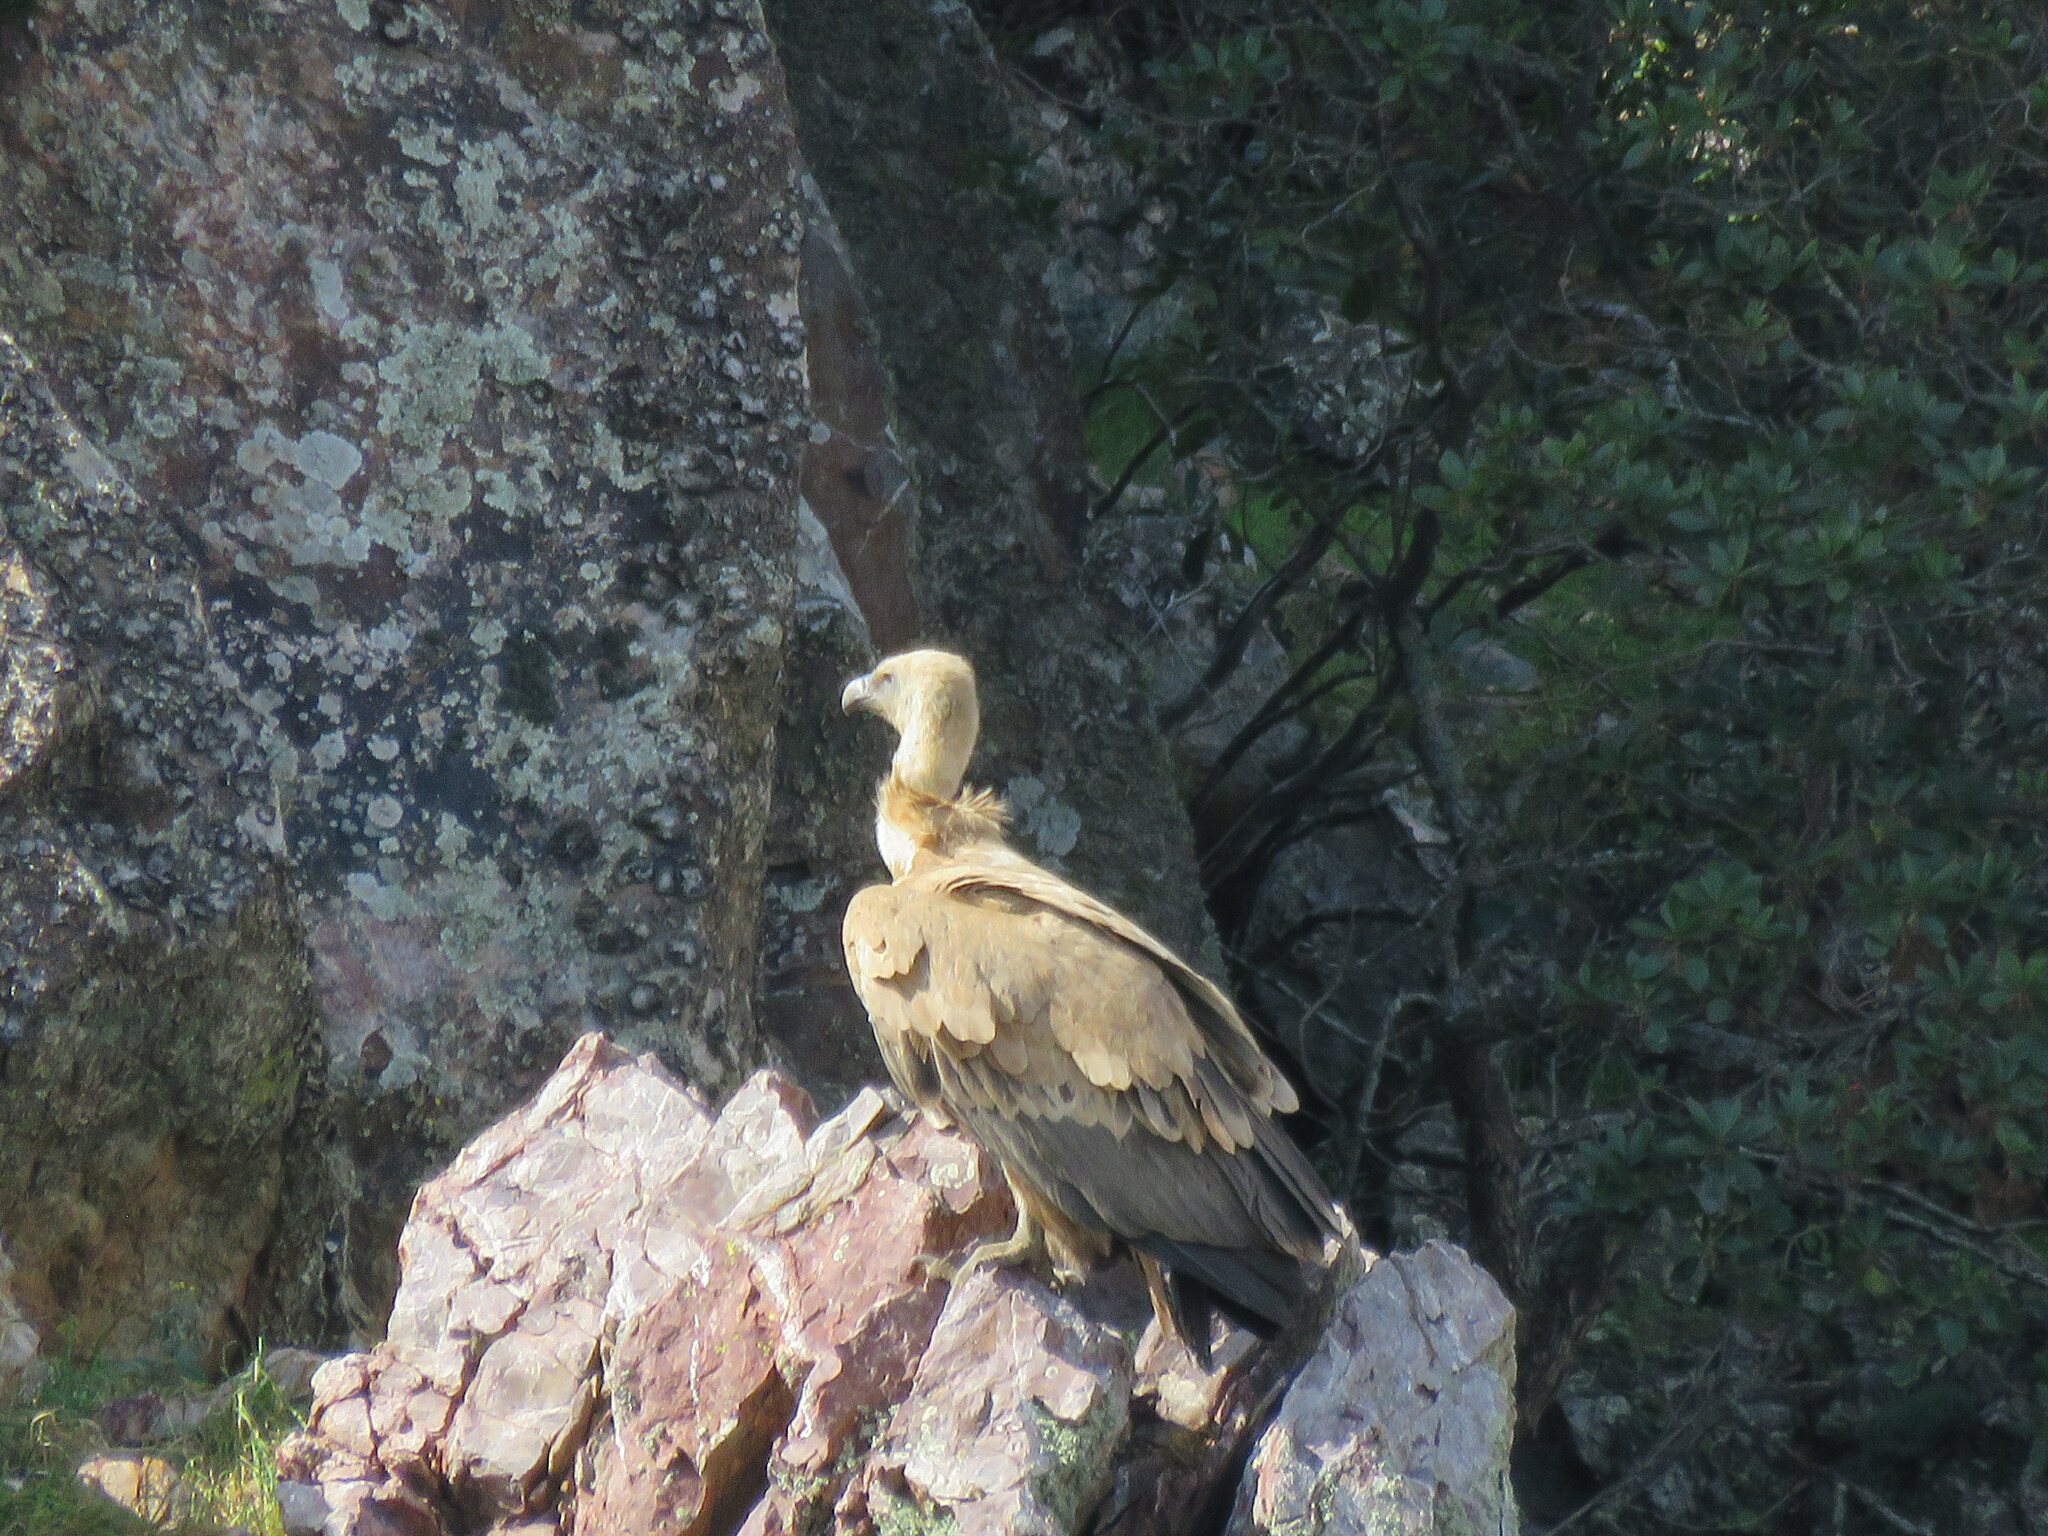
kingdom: Animalia
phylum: Chordata
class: Aves
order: Accipitriformes
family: Accipitridae
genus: Gyps
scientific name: Gyps fulvus
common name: Griffon vulture
